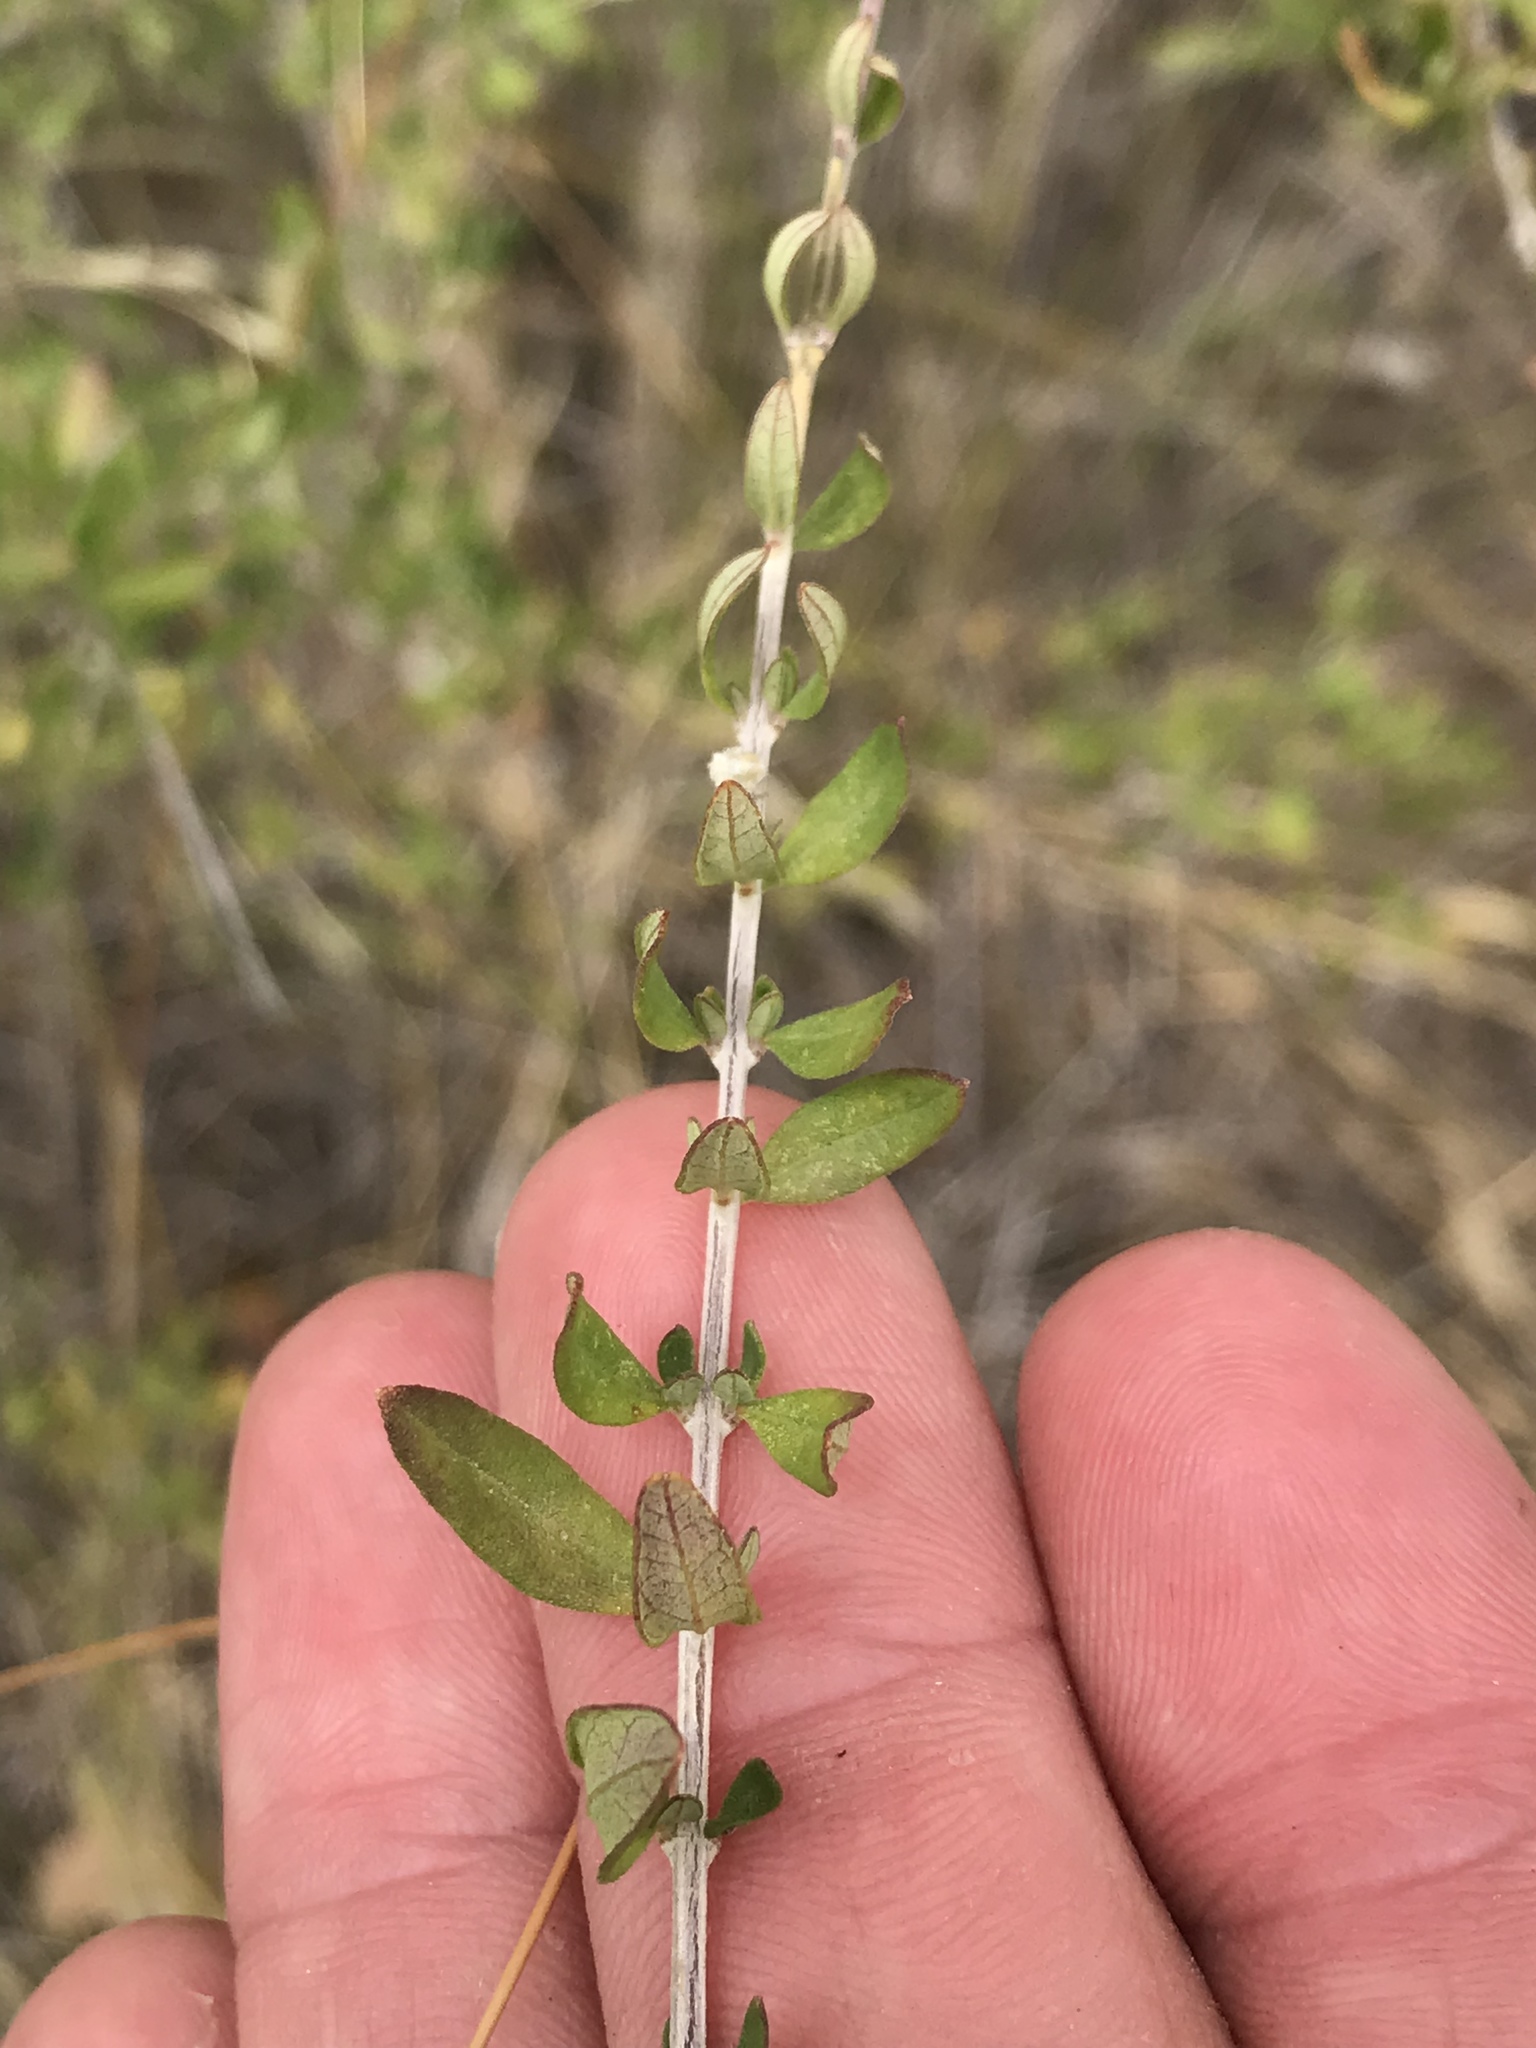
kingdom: Plantae
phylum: Tracheophyta
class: Magnoliopsida
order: Lamiales
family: Verbenaceae
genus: Aloysia
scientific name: Aloysia gratissima
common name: Common bee-brush
